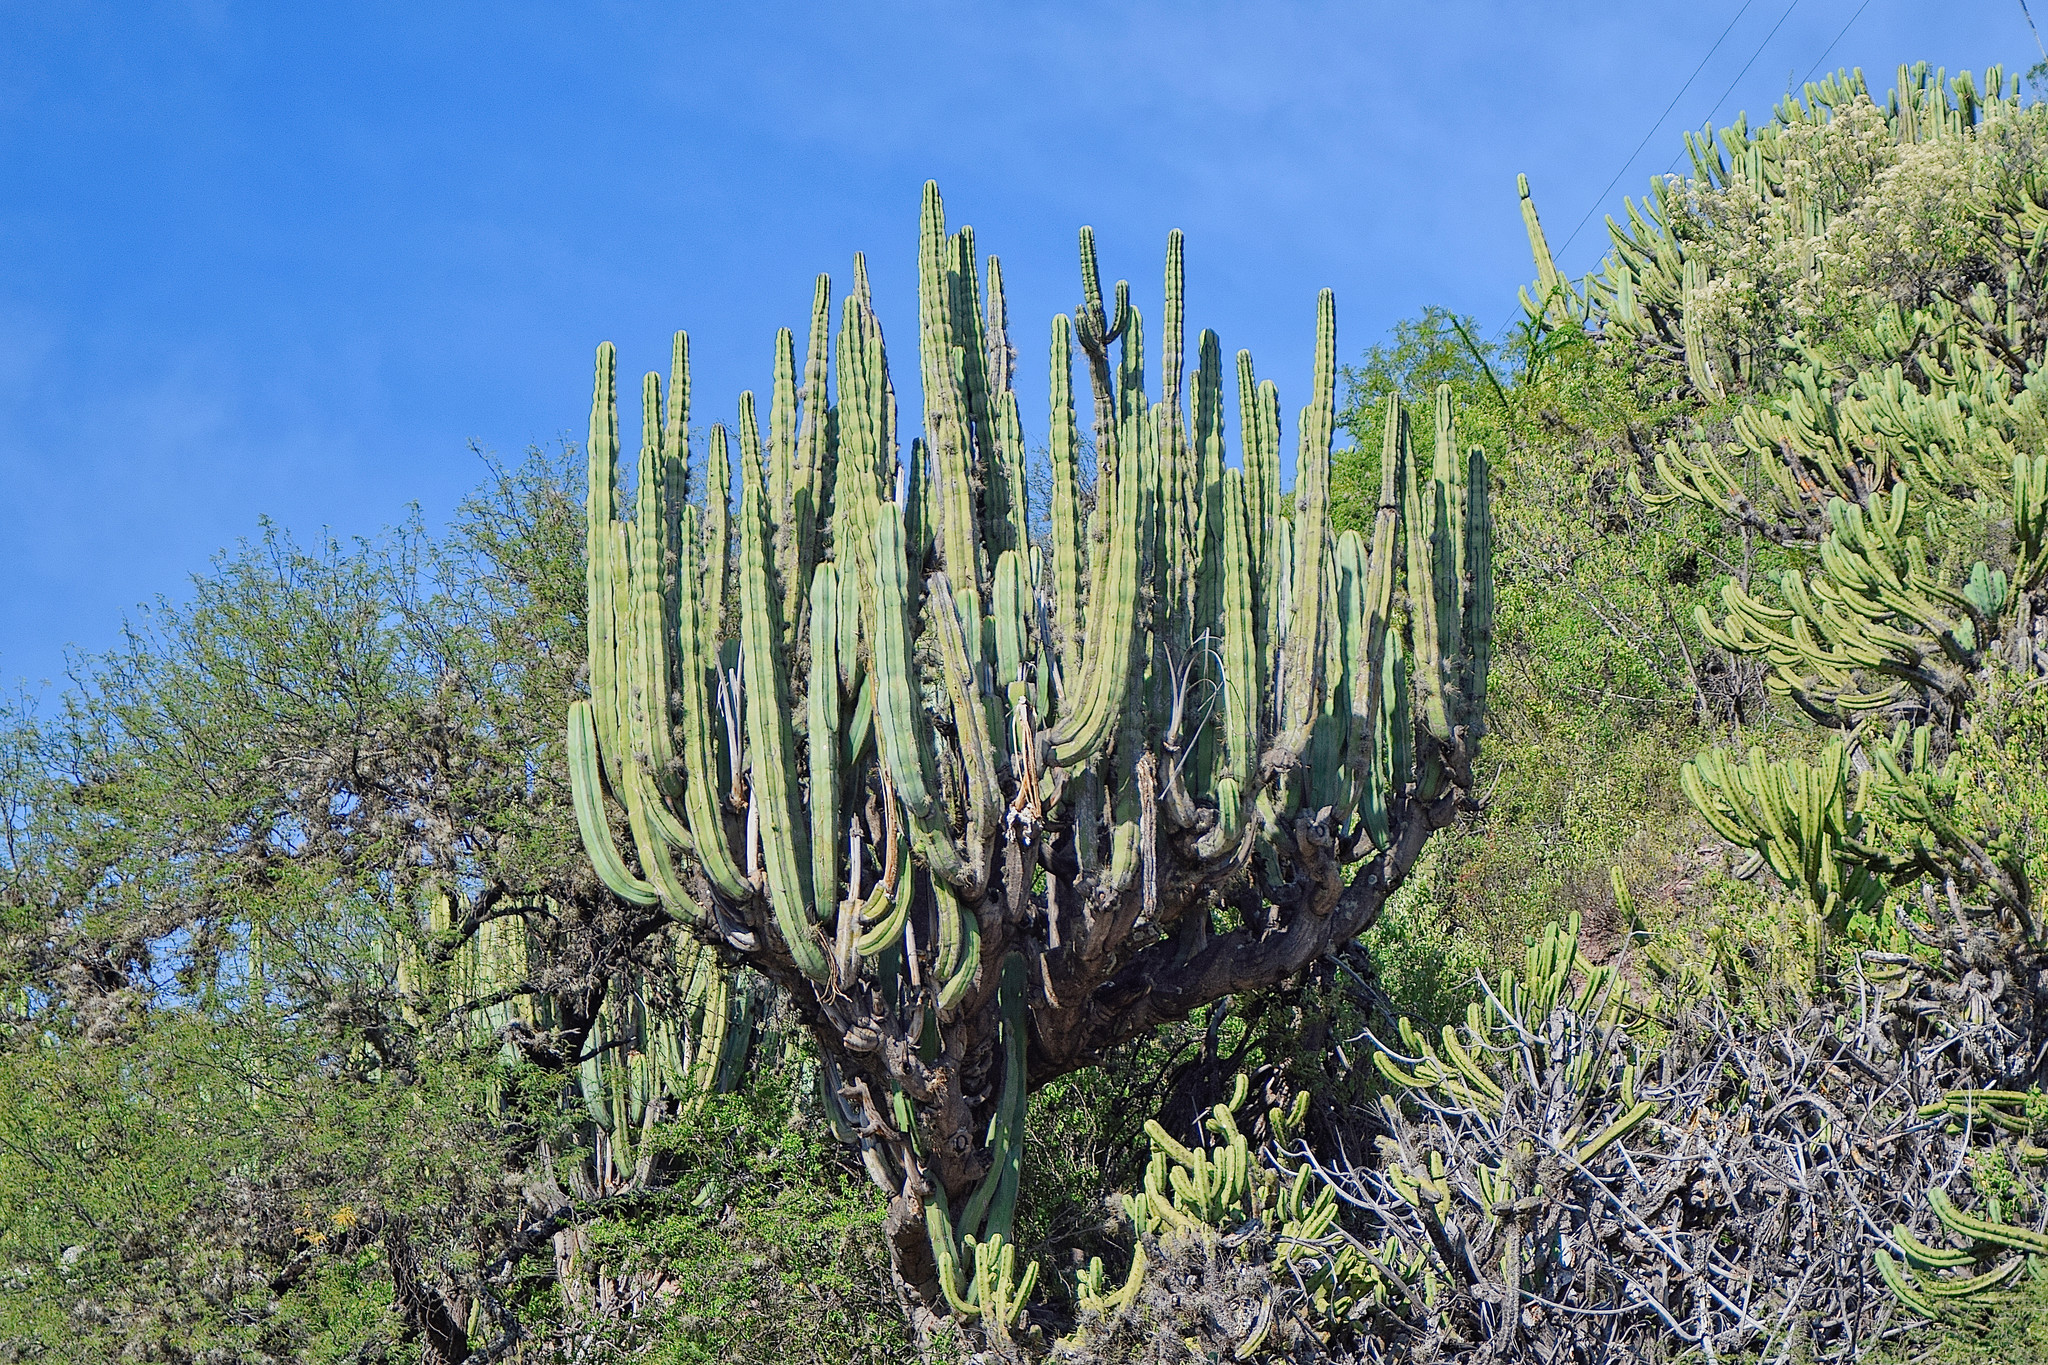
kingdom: Plantae
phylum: Tracheophyta
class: Magnoliopsida
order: Caryophyllales
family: Cactaceae
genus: Stenocereus
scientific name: Stenocereus dumortieri
